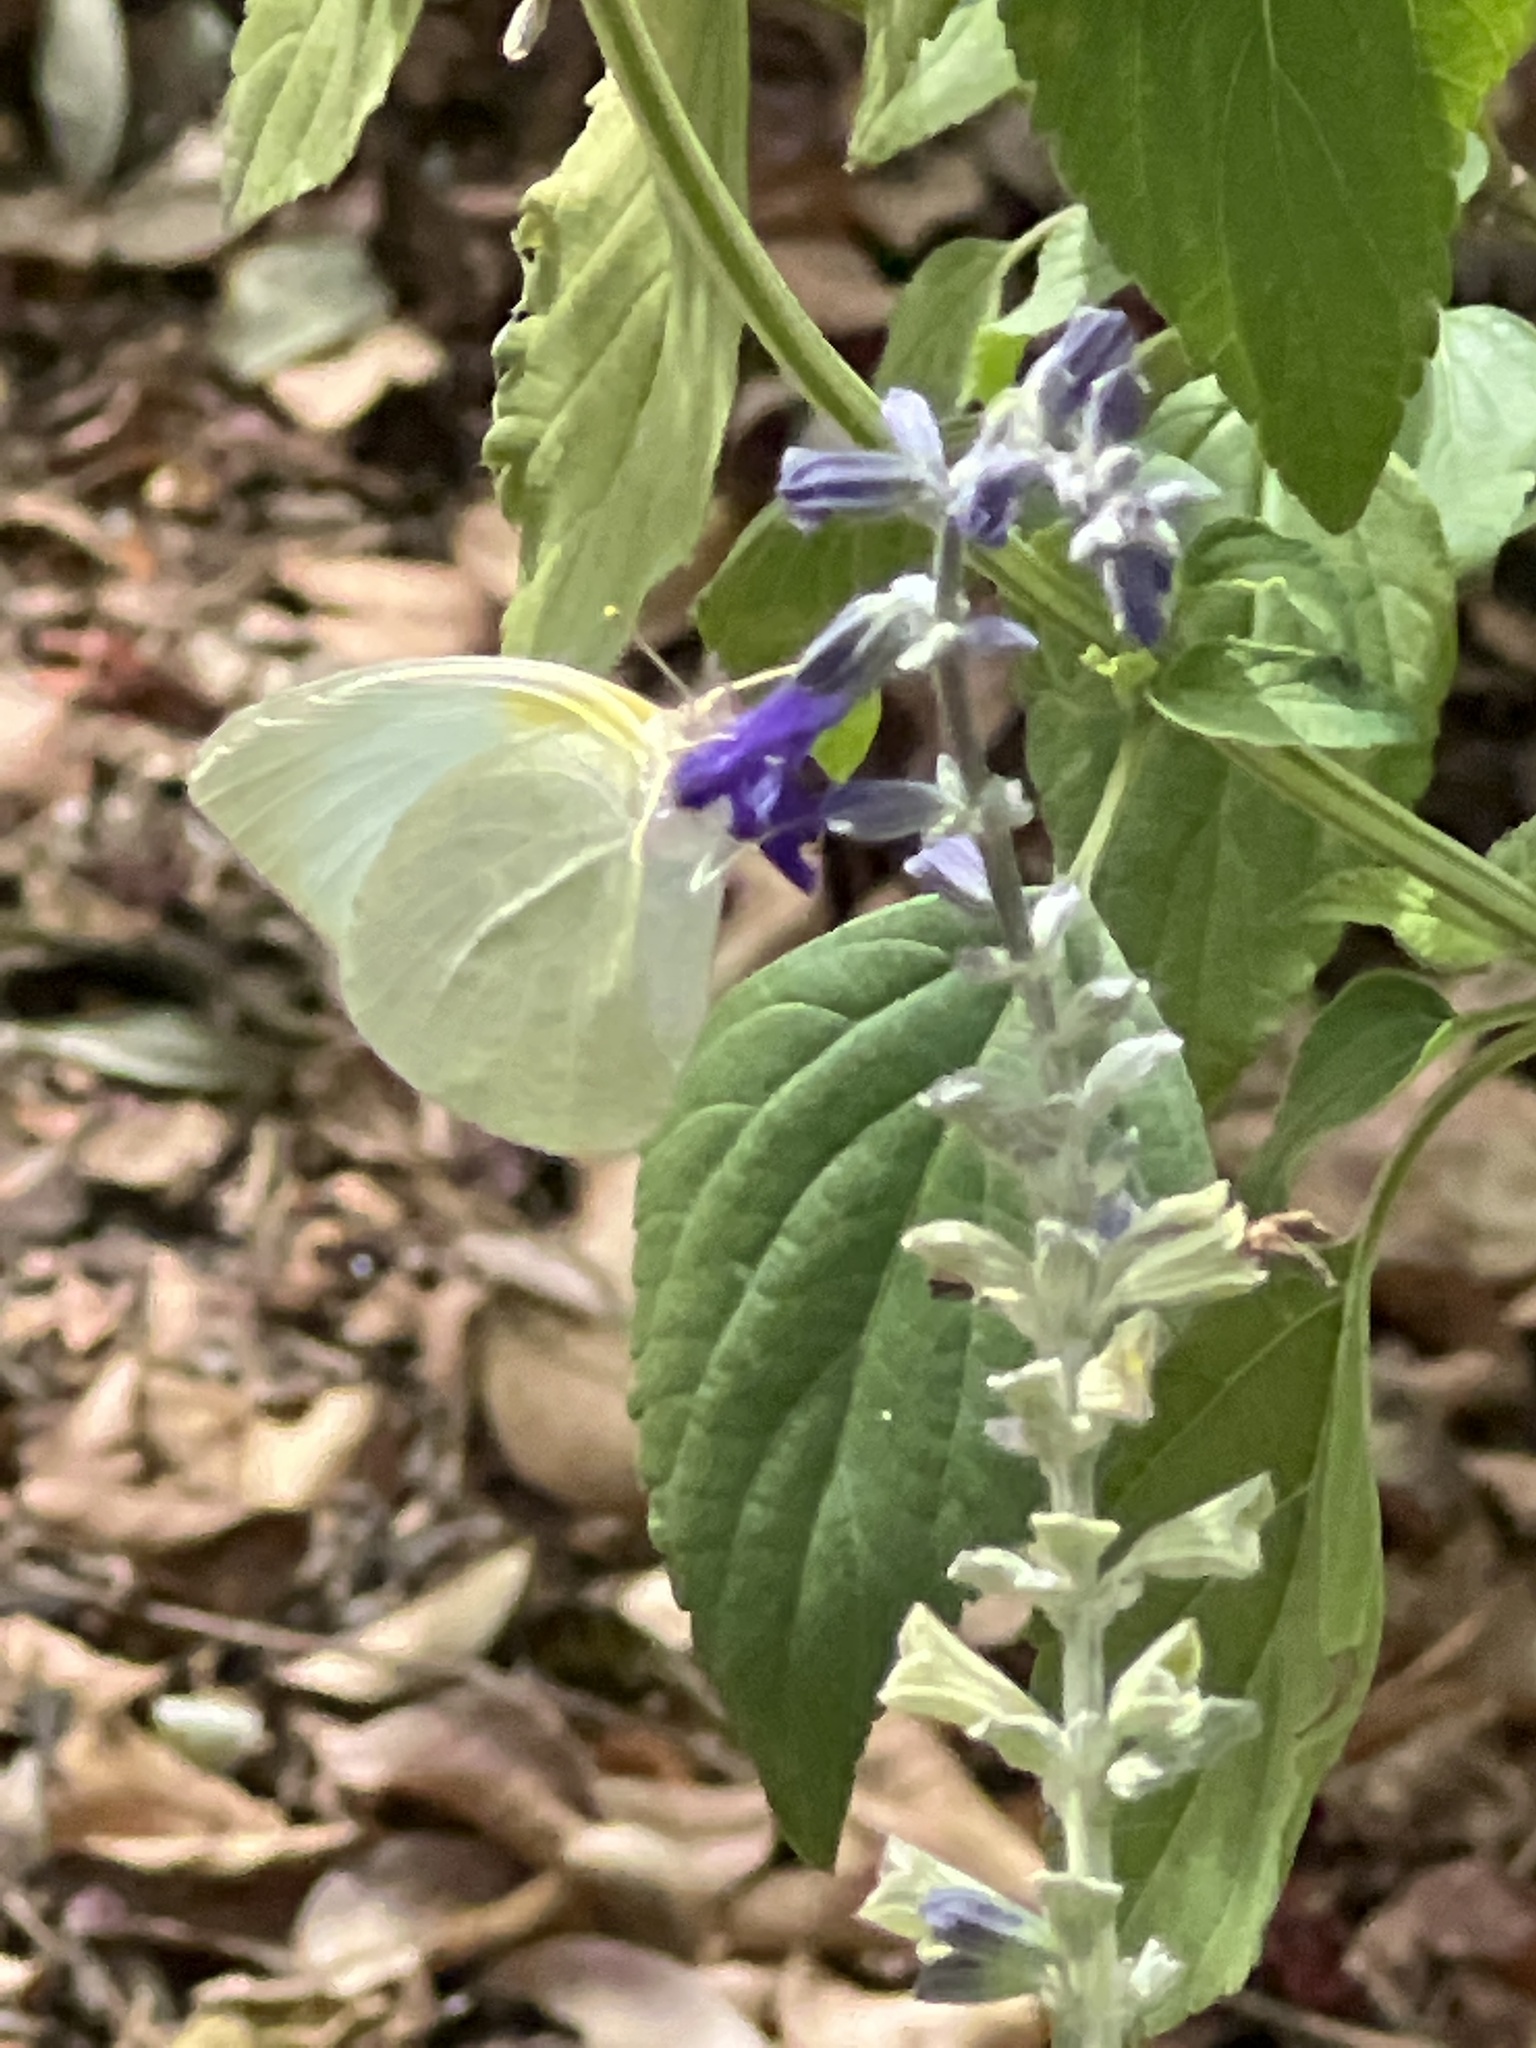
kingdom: Animalia
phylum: Arthropoda
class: Insecta
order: Lepidoptera
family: Pieridae
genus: Kricogonia
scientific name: Kricogonia lyside
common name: Guayacan sulphur,
